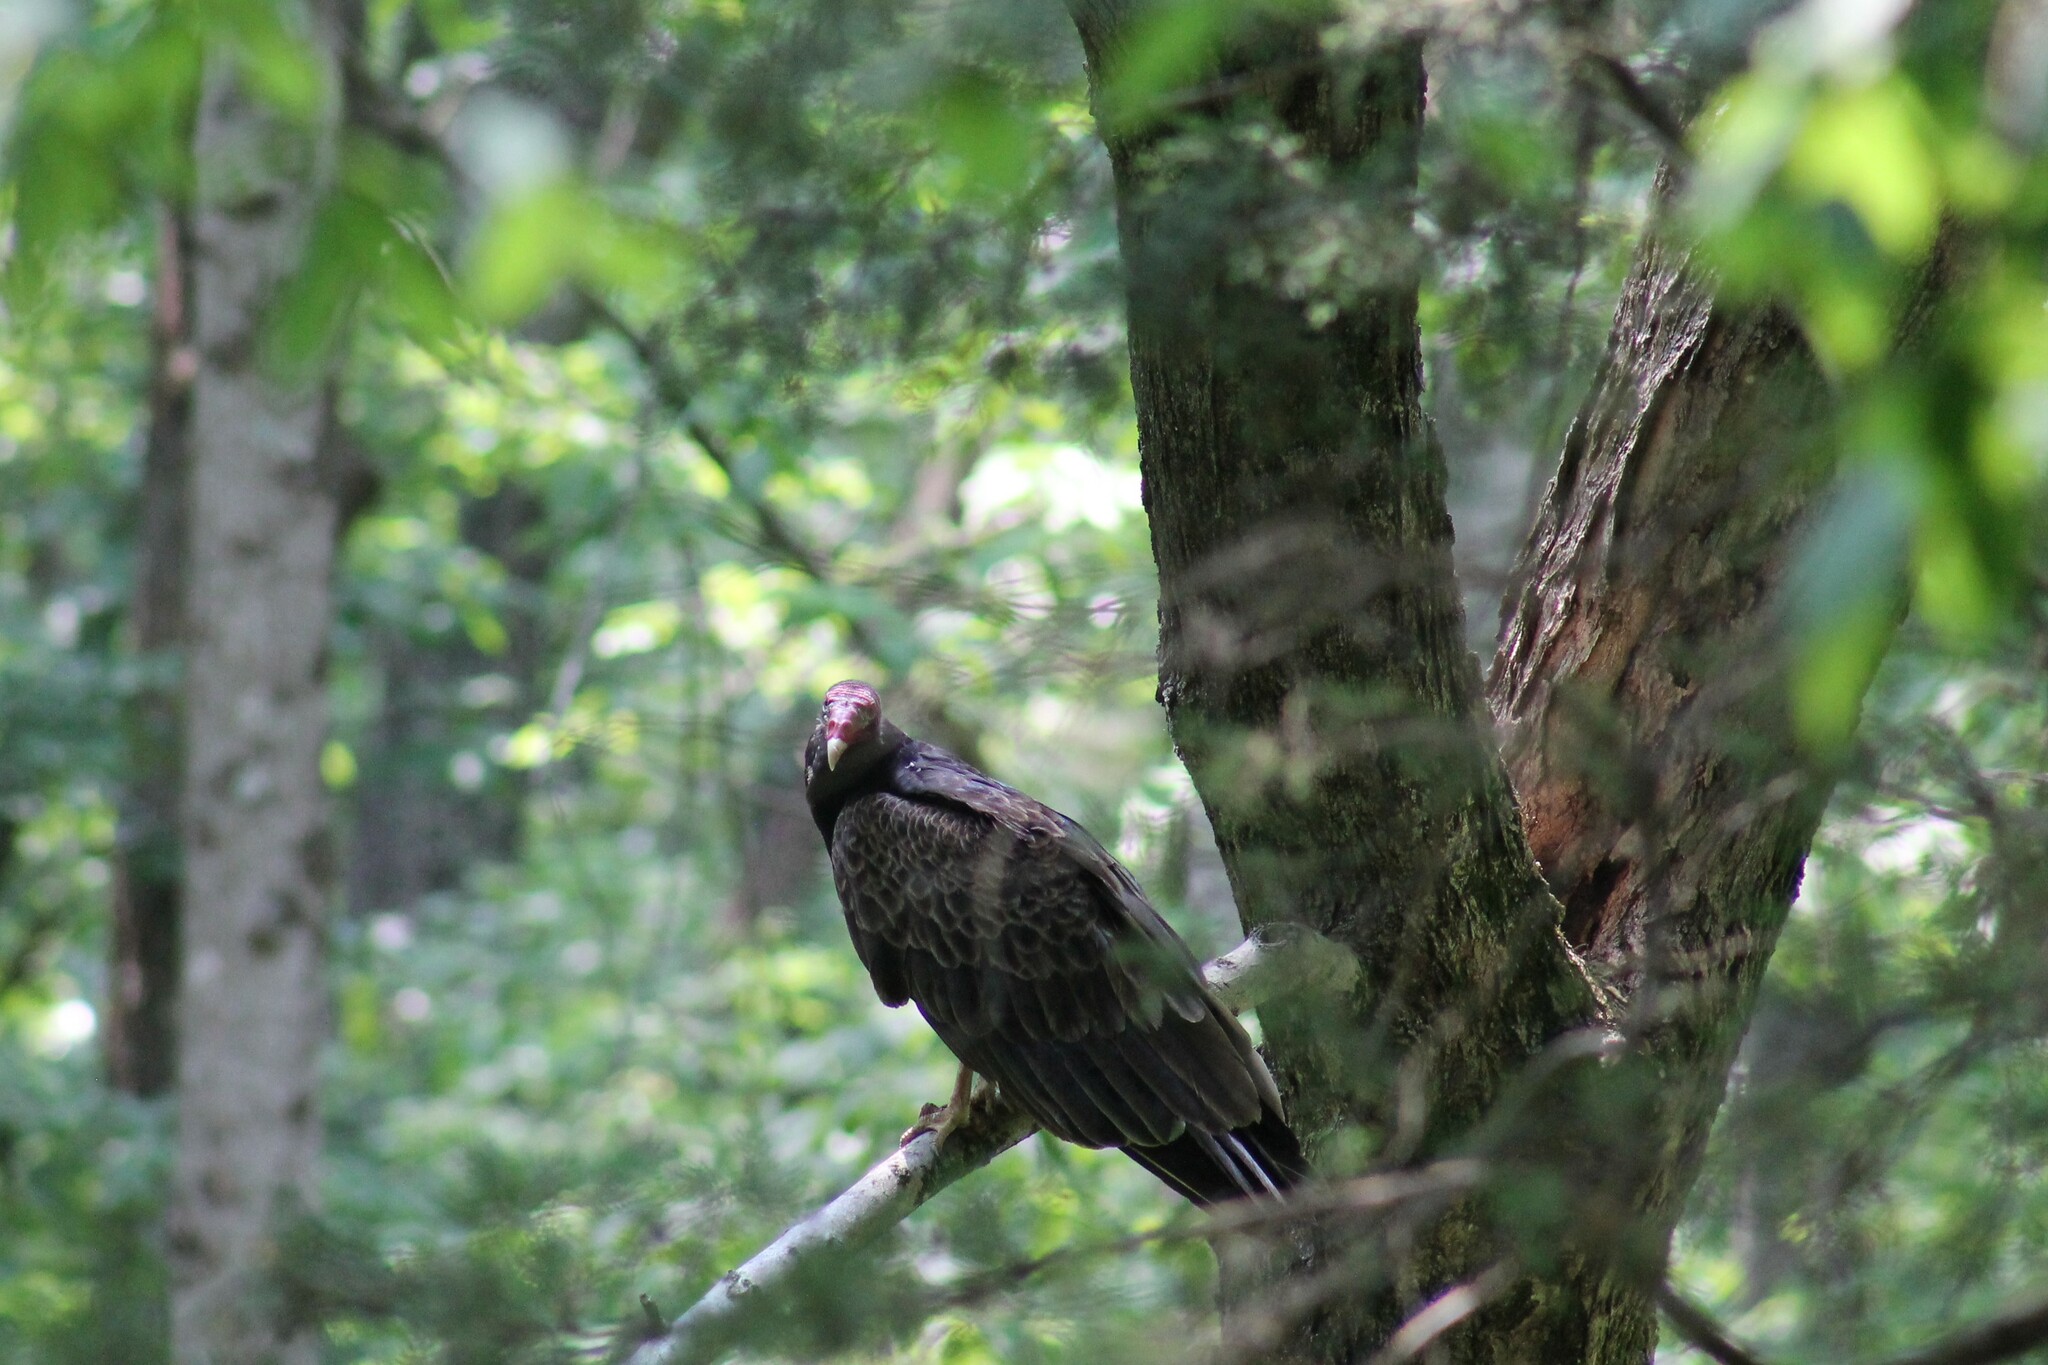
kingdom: Animalia
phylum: Chordata
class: Aves
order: Accipitriformes
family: Cathartidae
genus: Cathartes
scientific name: Cathartes aura
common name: Turkey vulture
